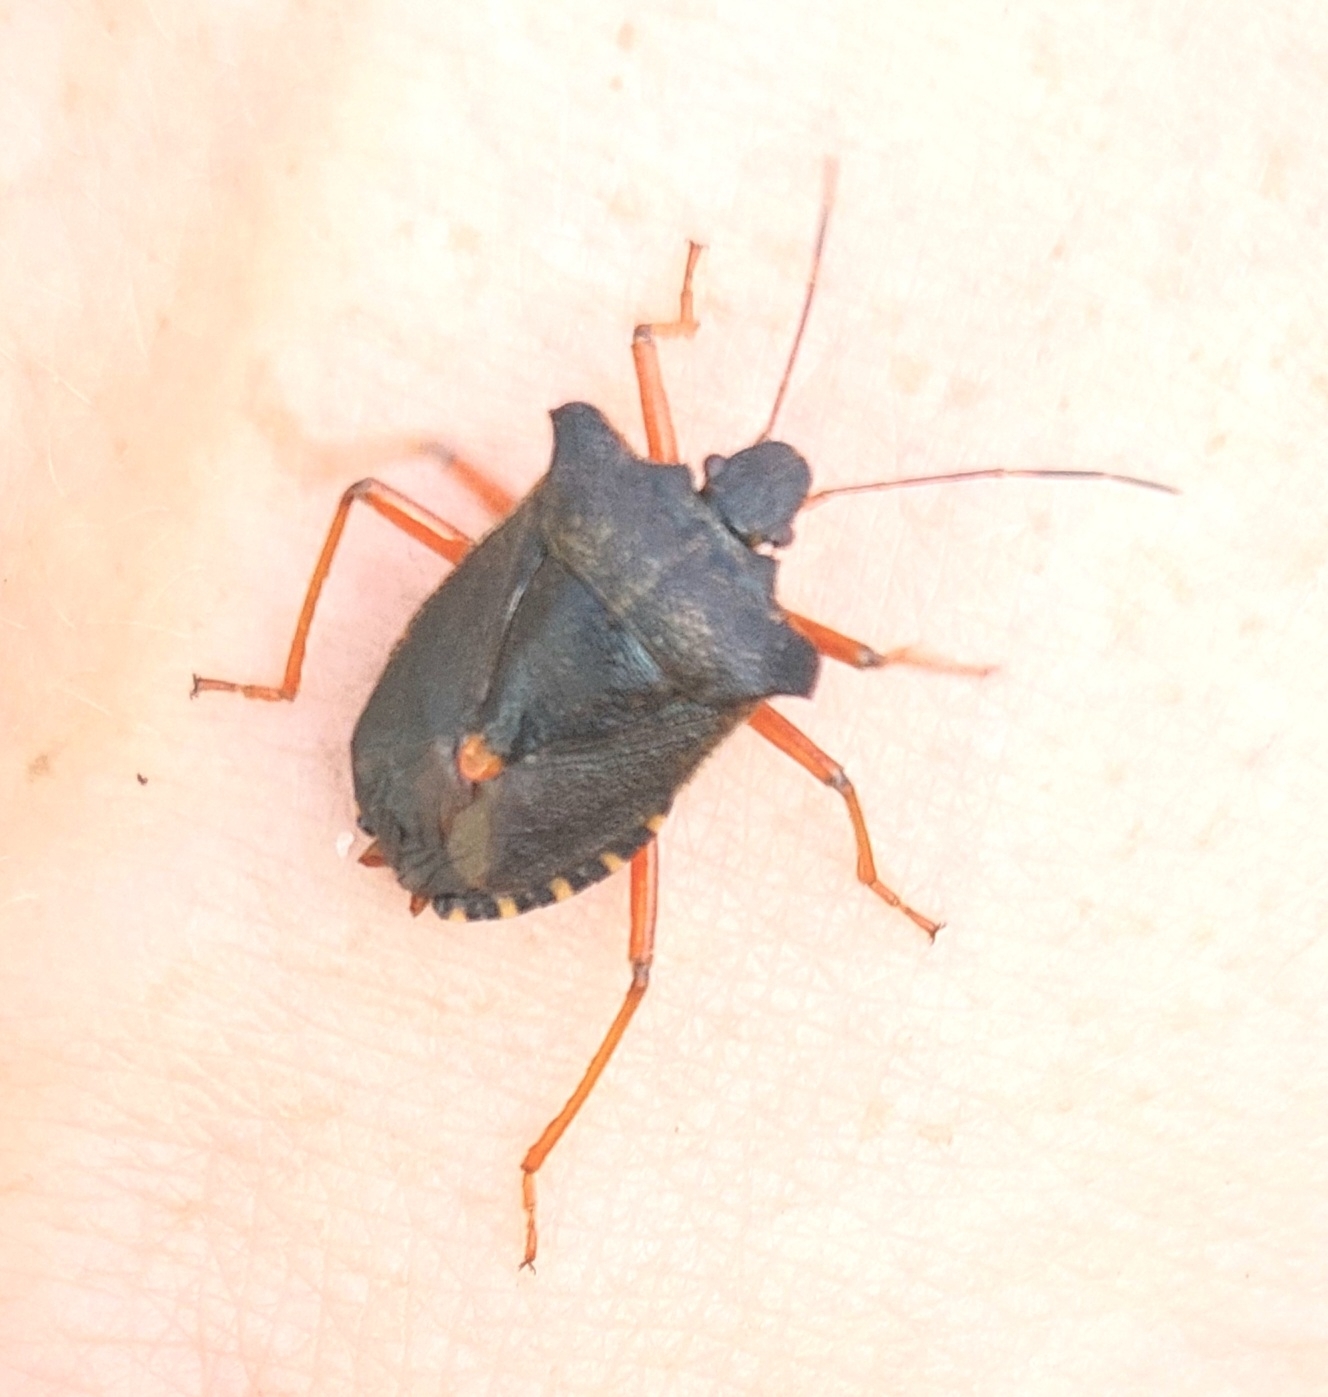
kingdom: Animalia
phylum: Arthropoda
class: Insecta
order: Hemiptera
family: Pentatomidae
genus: Pentatoma
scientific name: Pentatoma rufipes
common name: Forest bug
